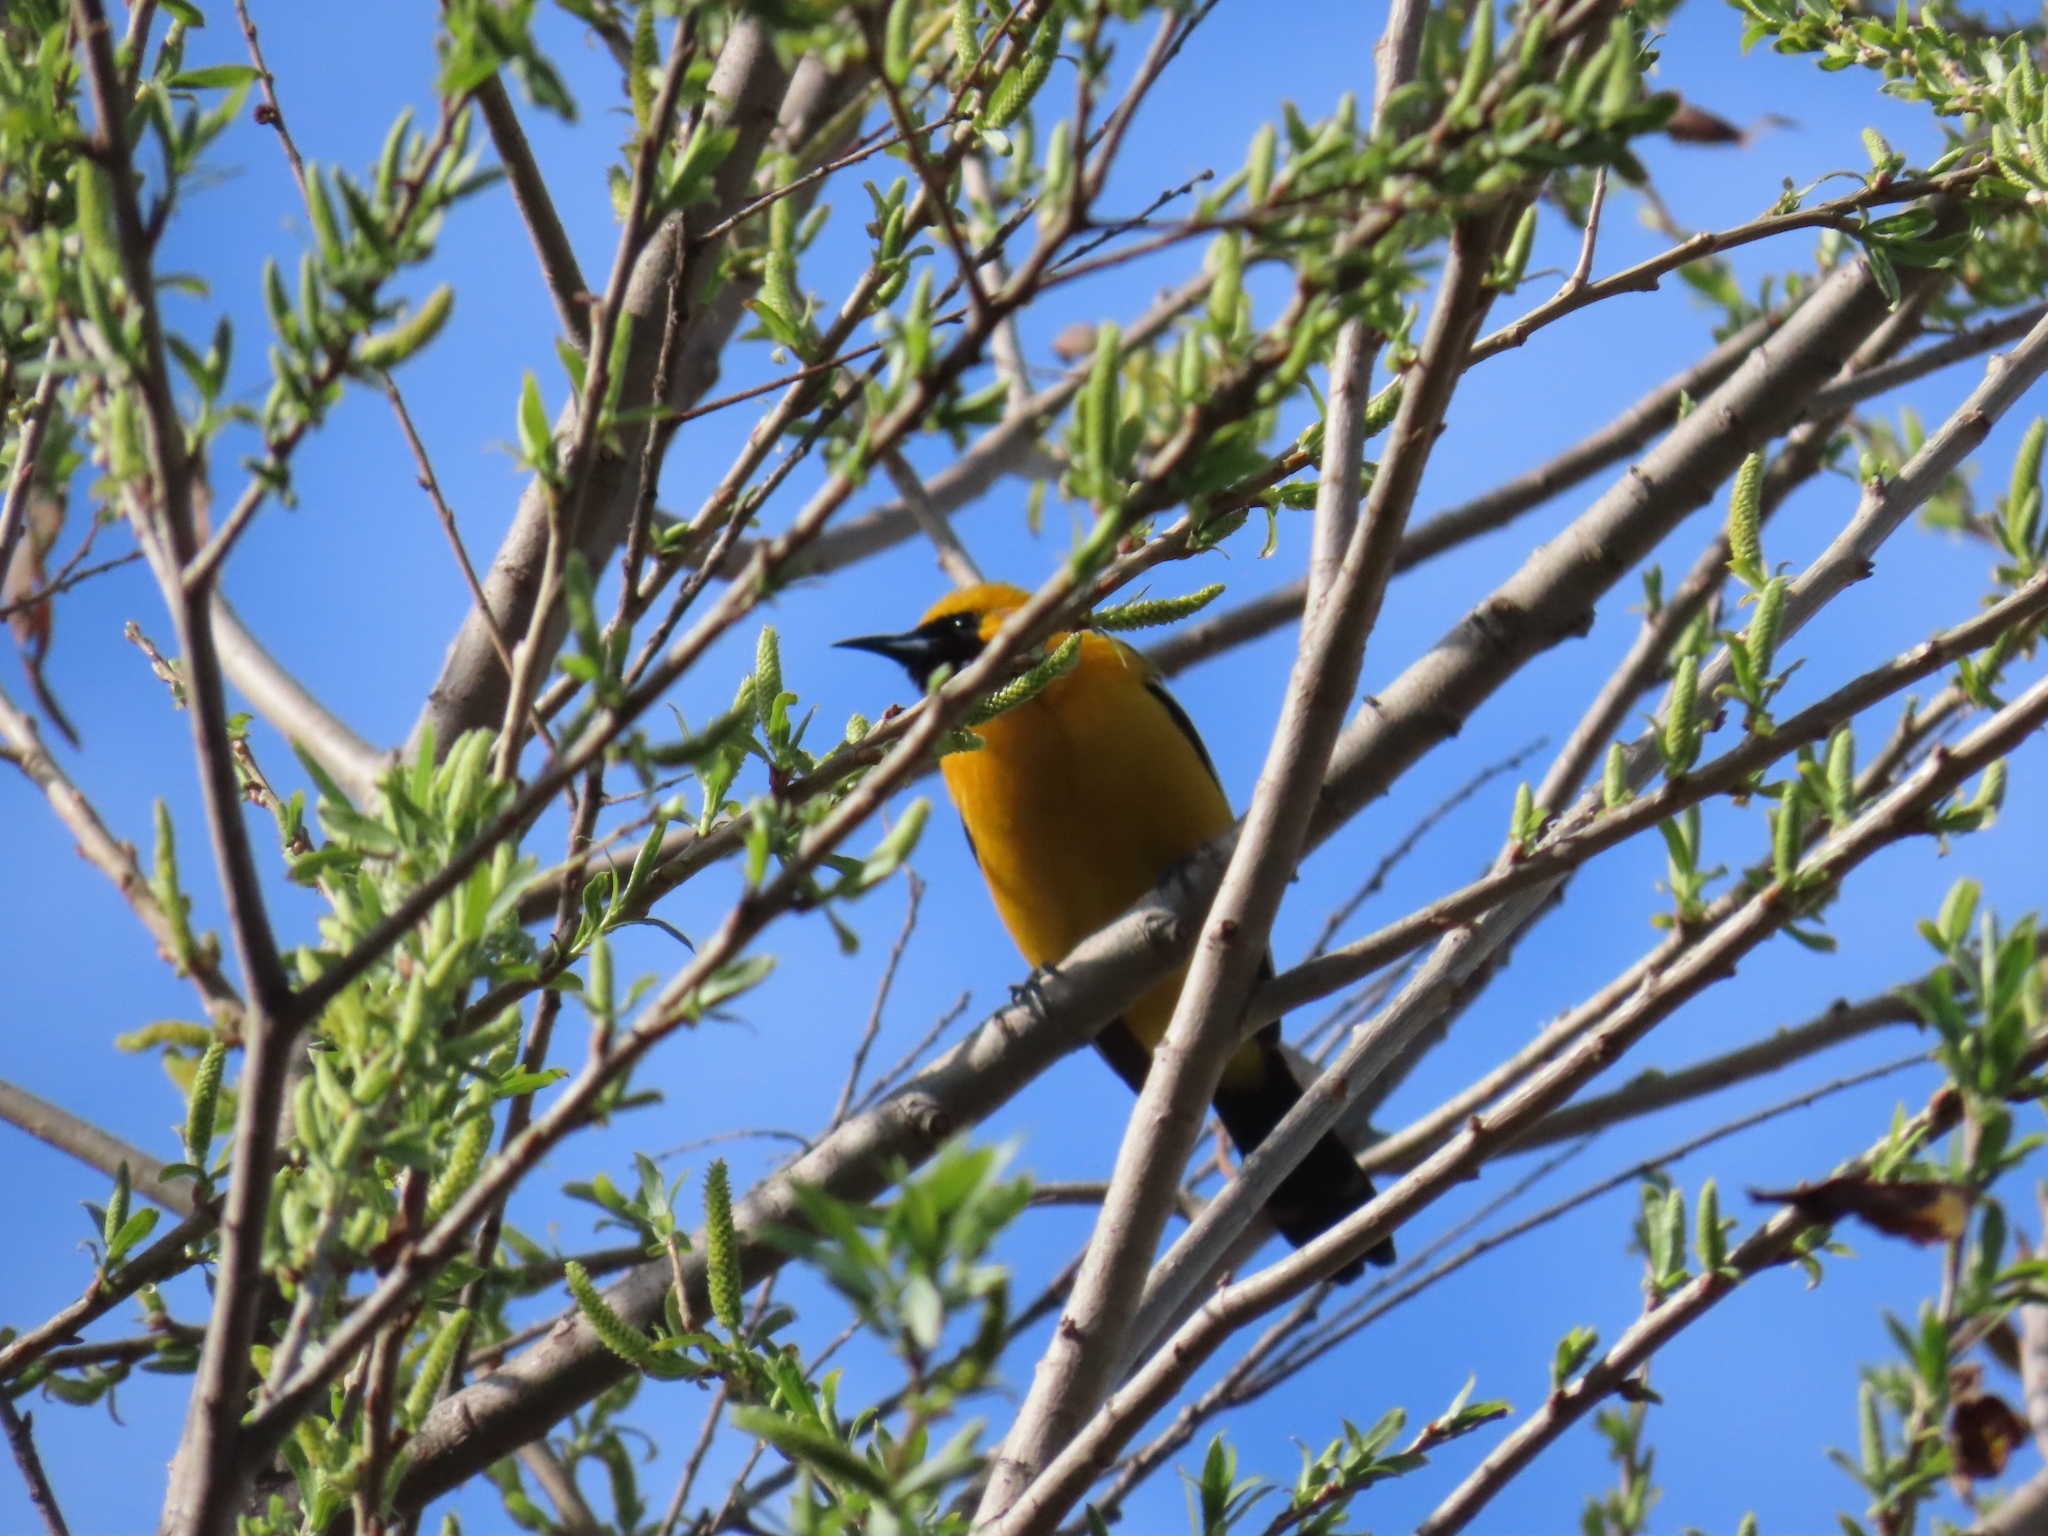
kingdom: Animalia
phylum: Chordata
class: Aves
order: Passeriformes
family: Icteridae
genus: Icterus
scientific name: Icterus cucullatus
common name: Hooded oriole
